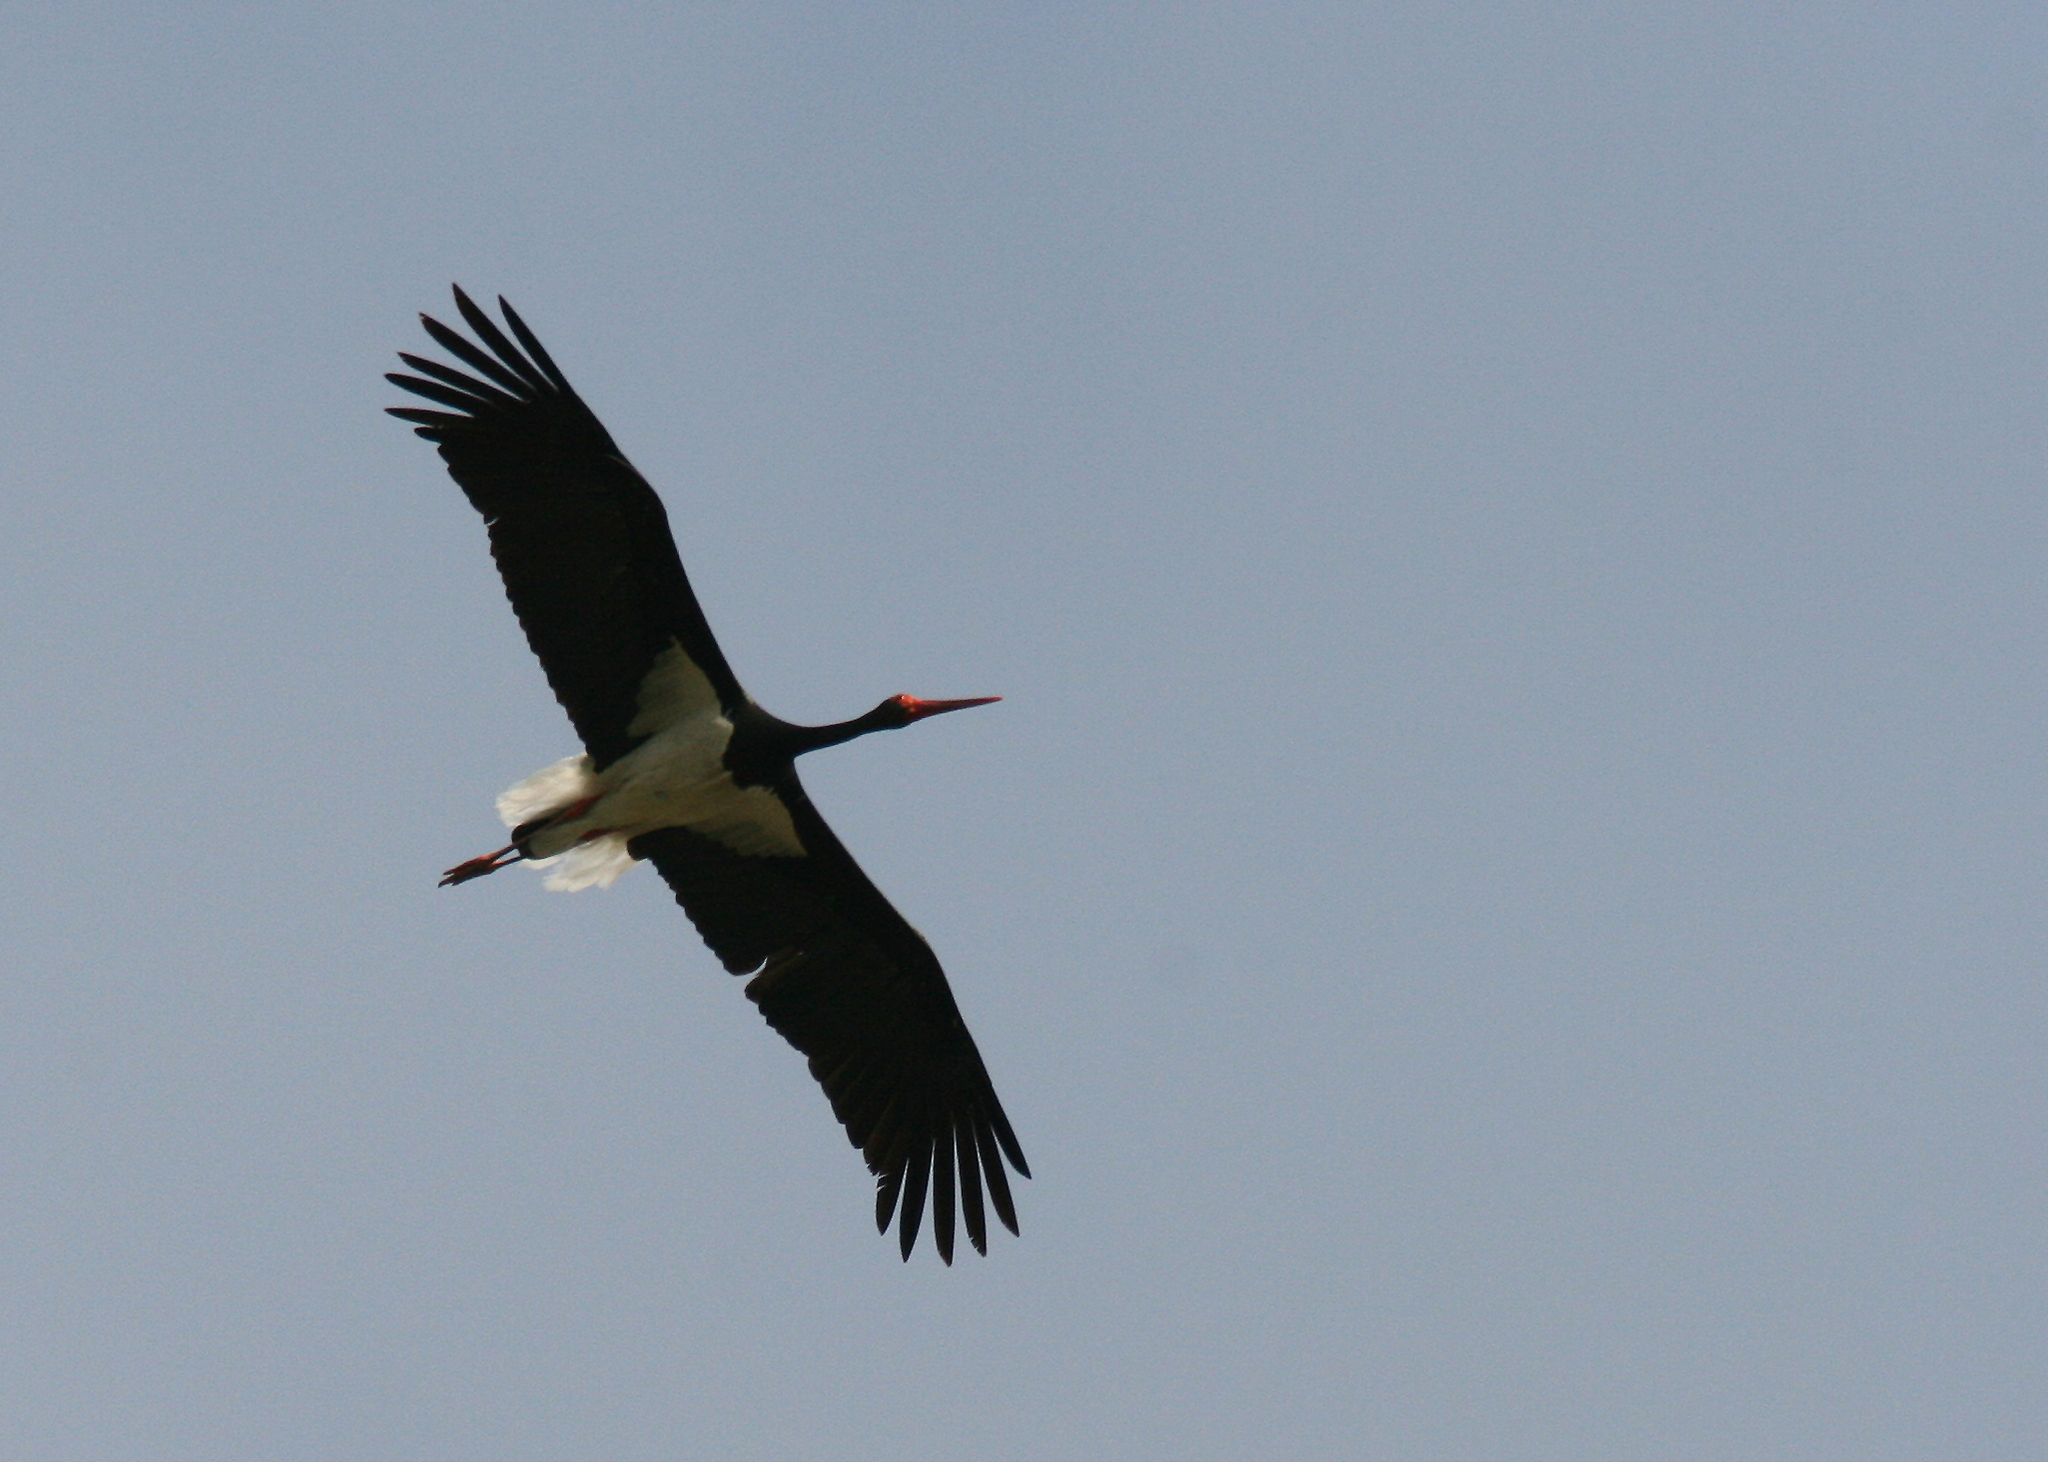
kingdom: Animalia
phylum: Chordata
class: Aves
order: Ciconiiformes
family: Ciconiidae
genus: Ciconia
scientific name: Ciconia nigra
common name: Black stork
